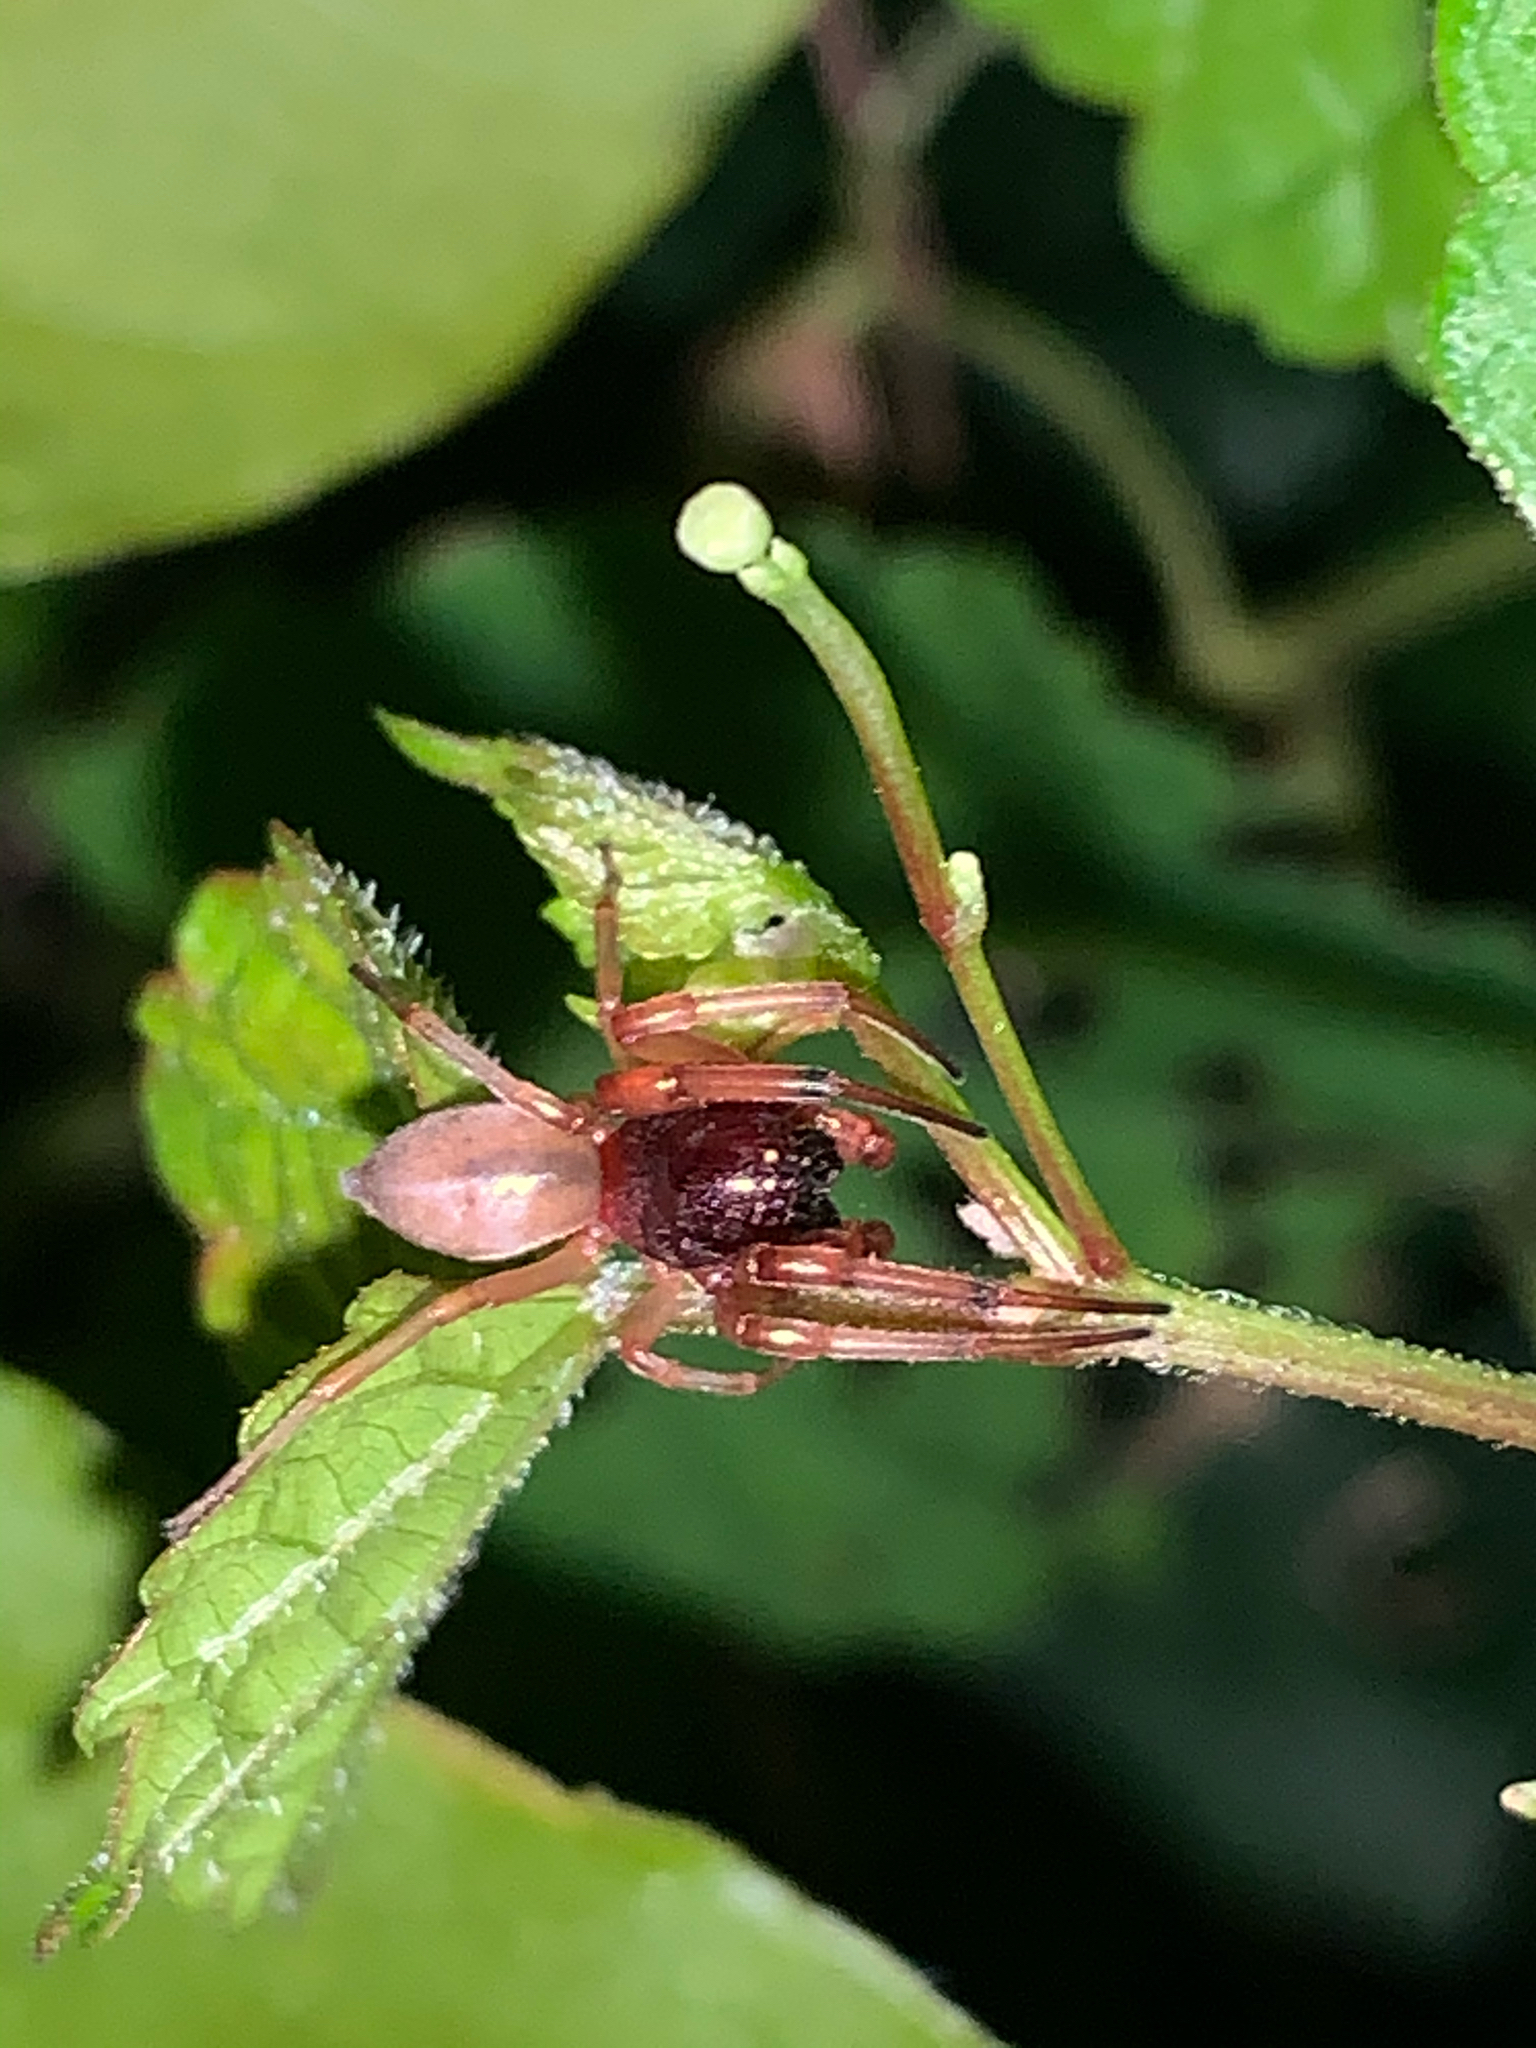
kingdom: Animalia
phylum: Arthropoda
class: Arachnida
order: Araneae
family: Trachelidae
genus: Trachelas
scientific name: Trachelas tranquillus
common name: Broad-faced sac spider
